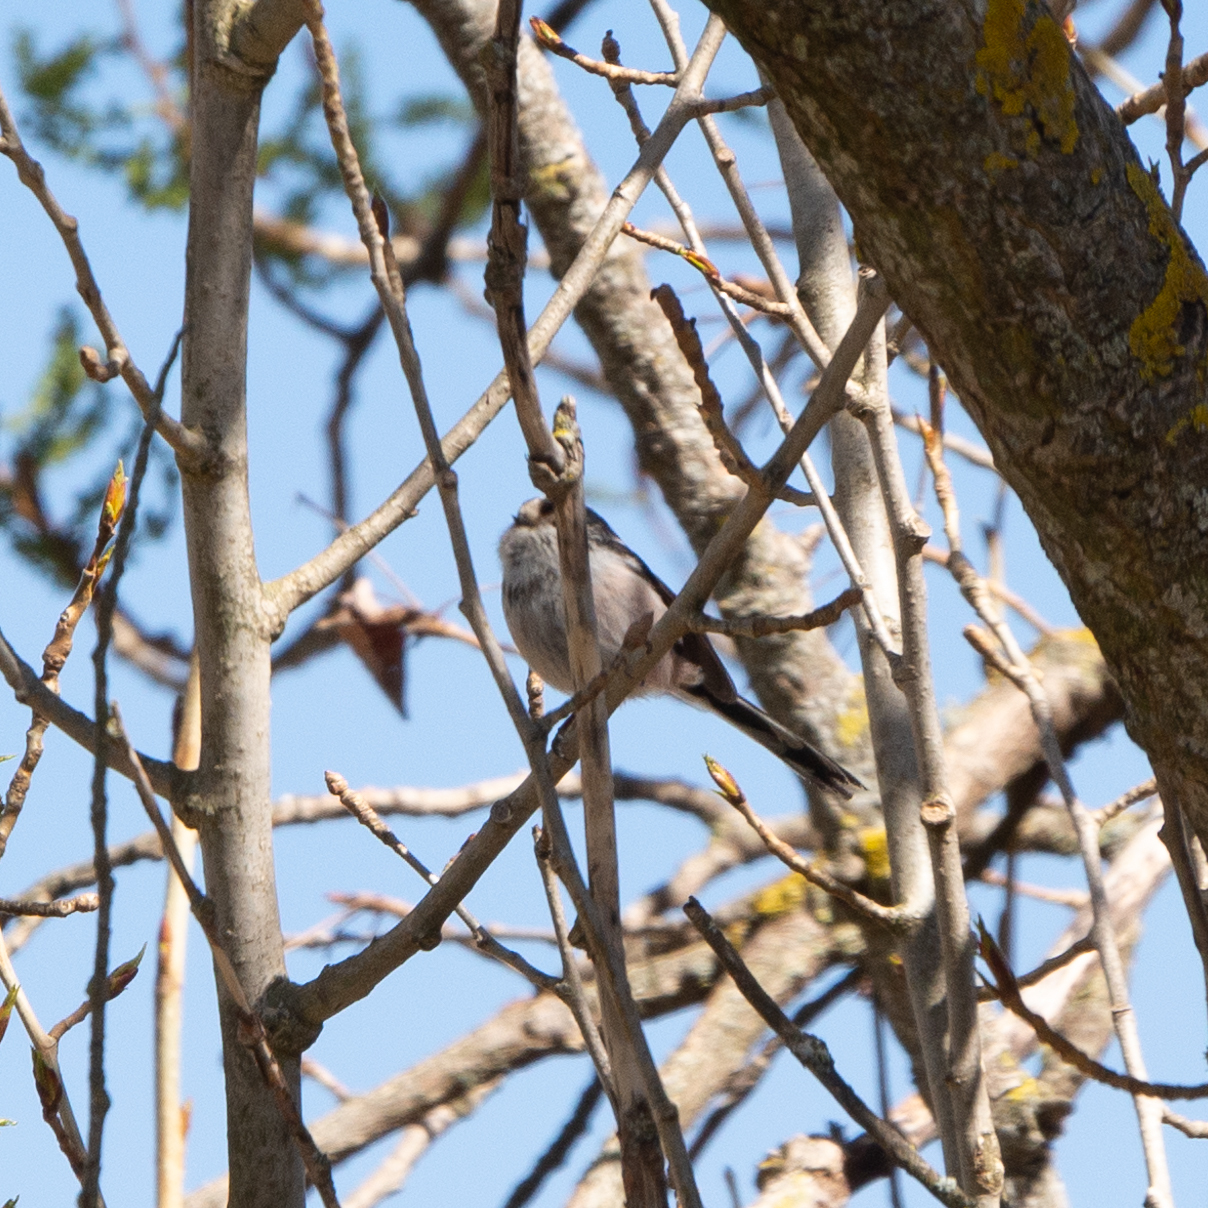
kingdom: Animalia
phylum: Chordata
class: Aves
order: Passeriformes
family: Aegithalidae
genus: Aegithalos
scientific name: Aegithalos caudatus
